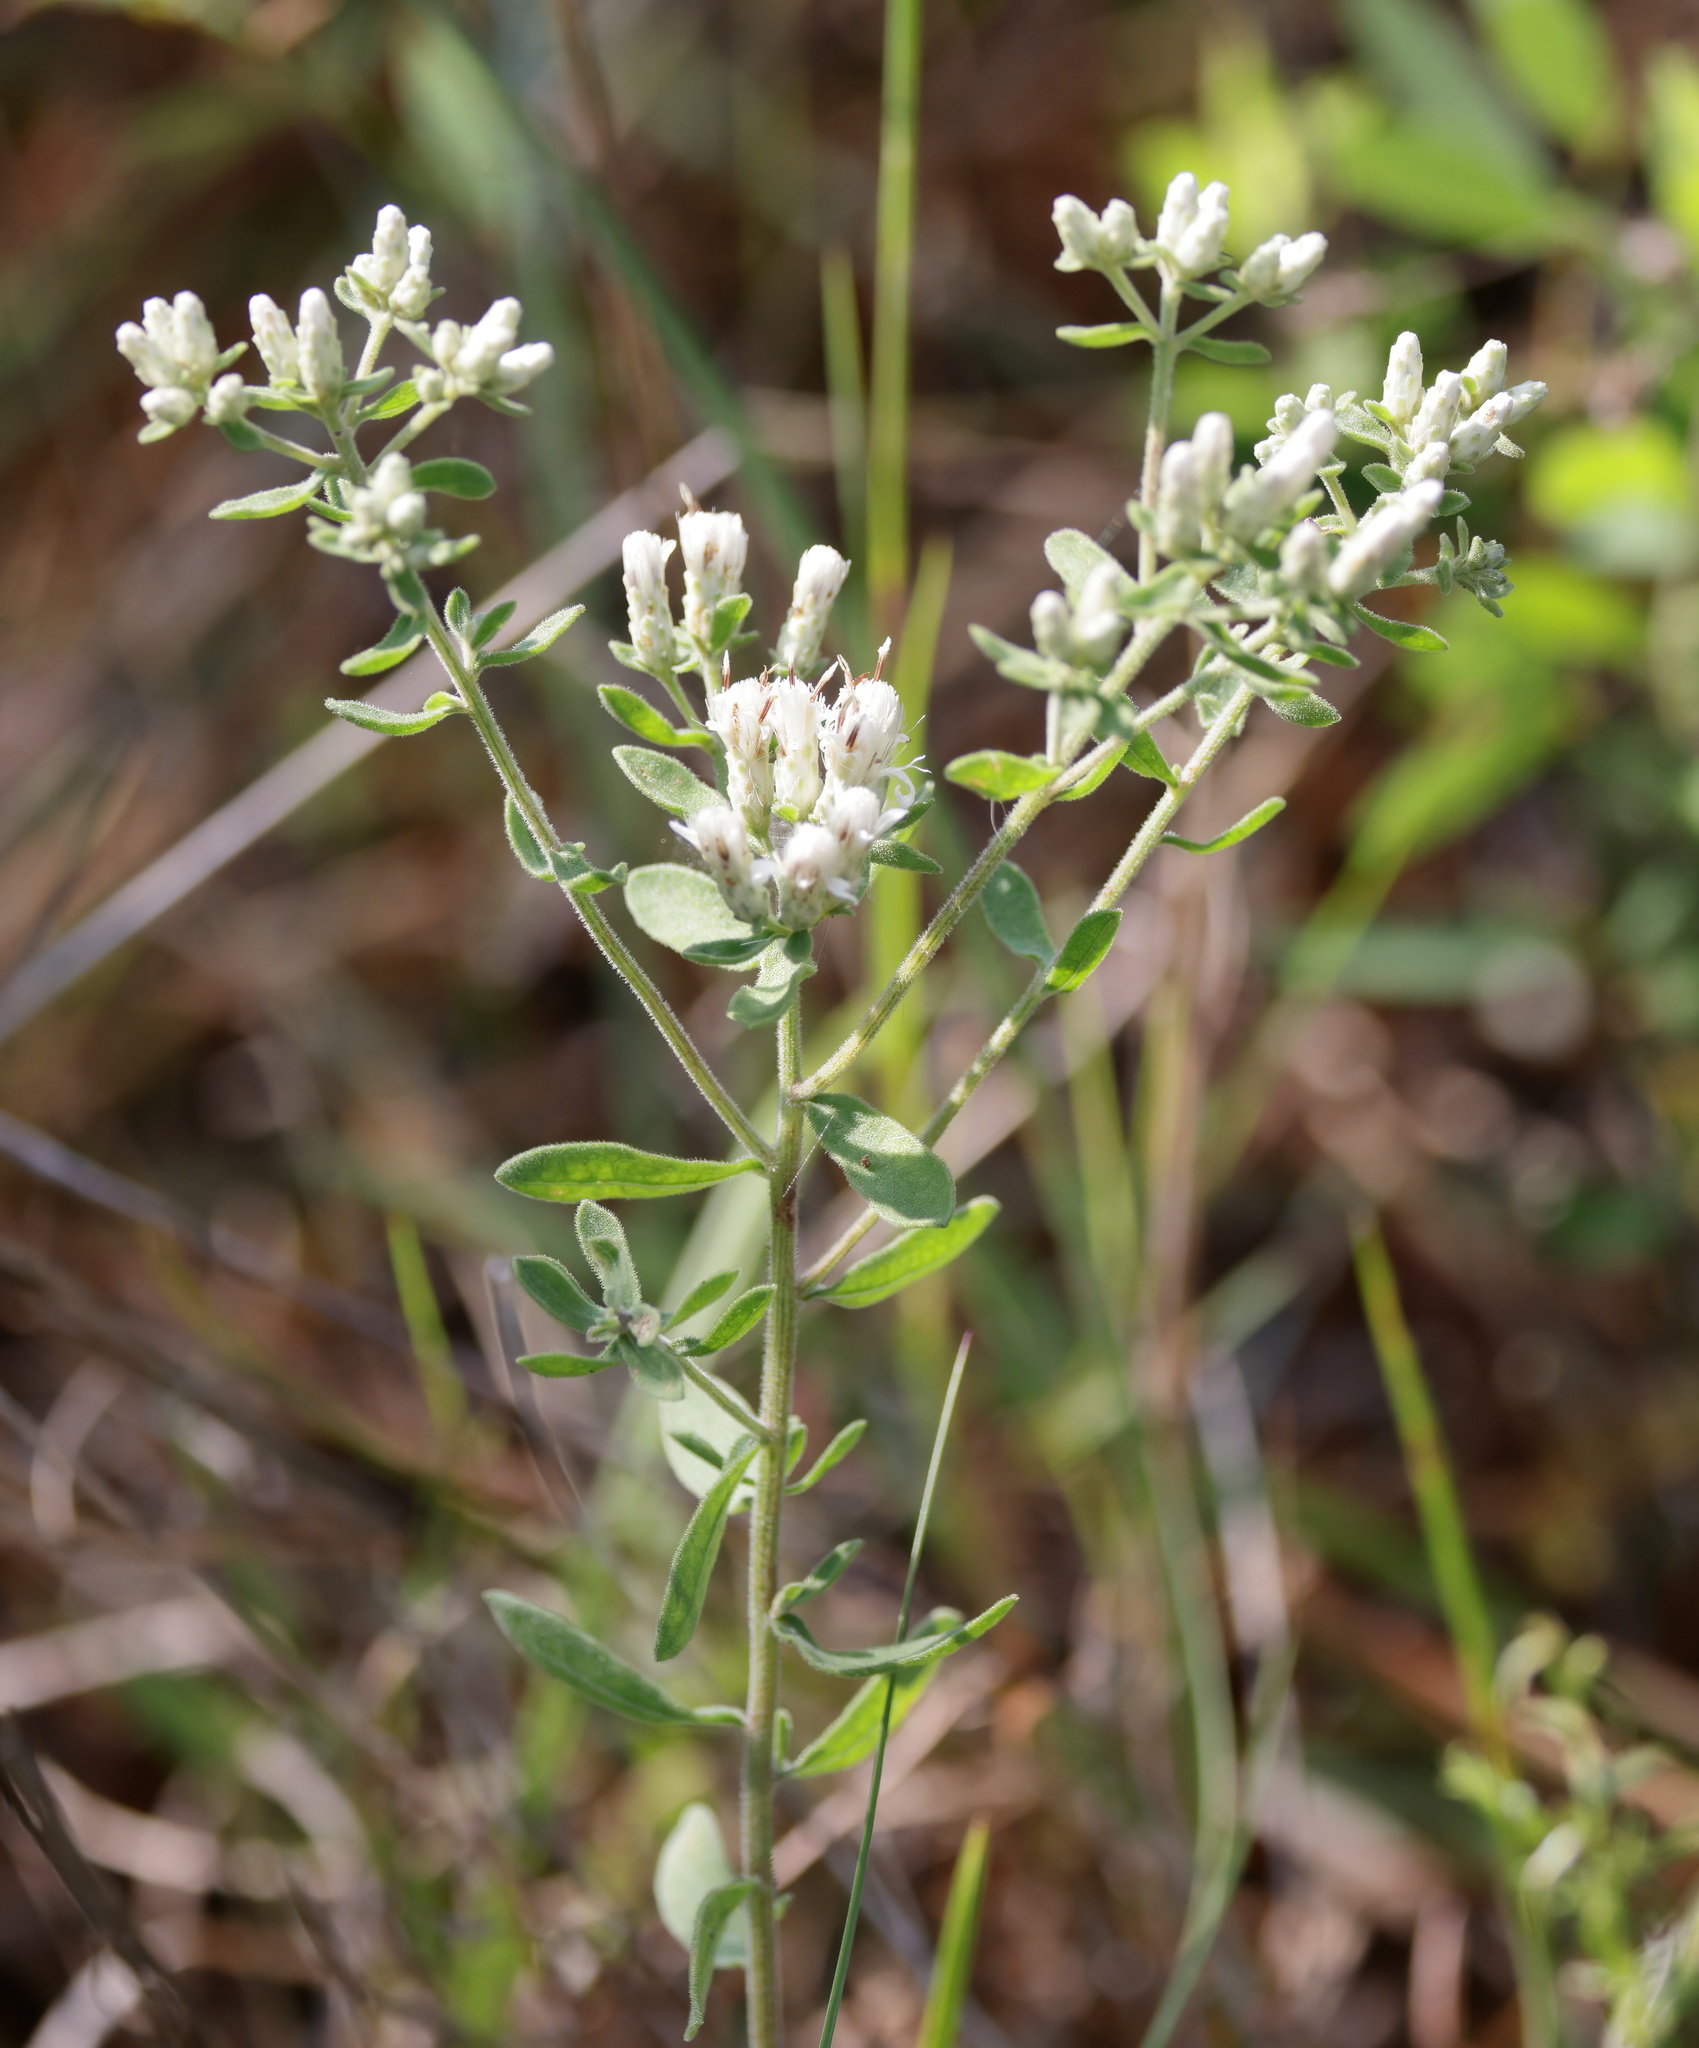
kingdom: Plantae
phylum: Tracheophyta
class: Magnoliopsida
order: Asterales
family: Asteraceae
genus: Sericocarpus
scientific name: Sericocarpus tortifolius
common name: Dixie aster
